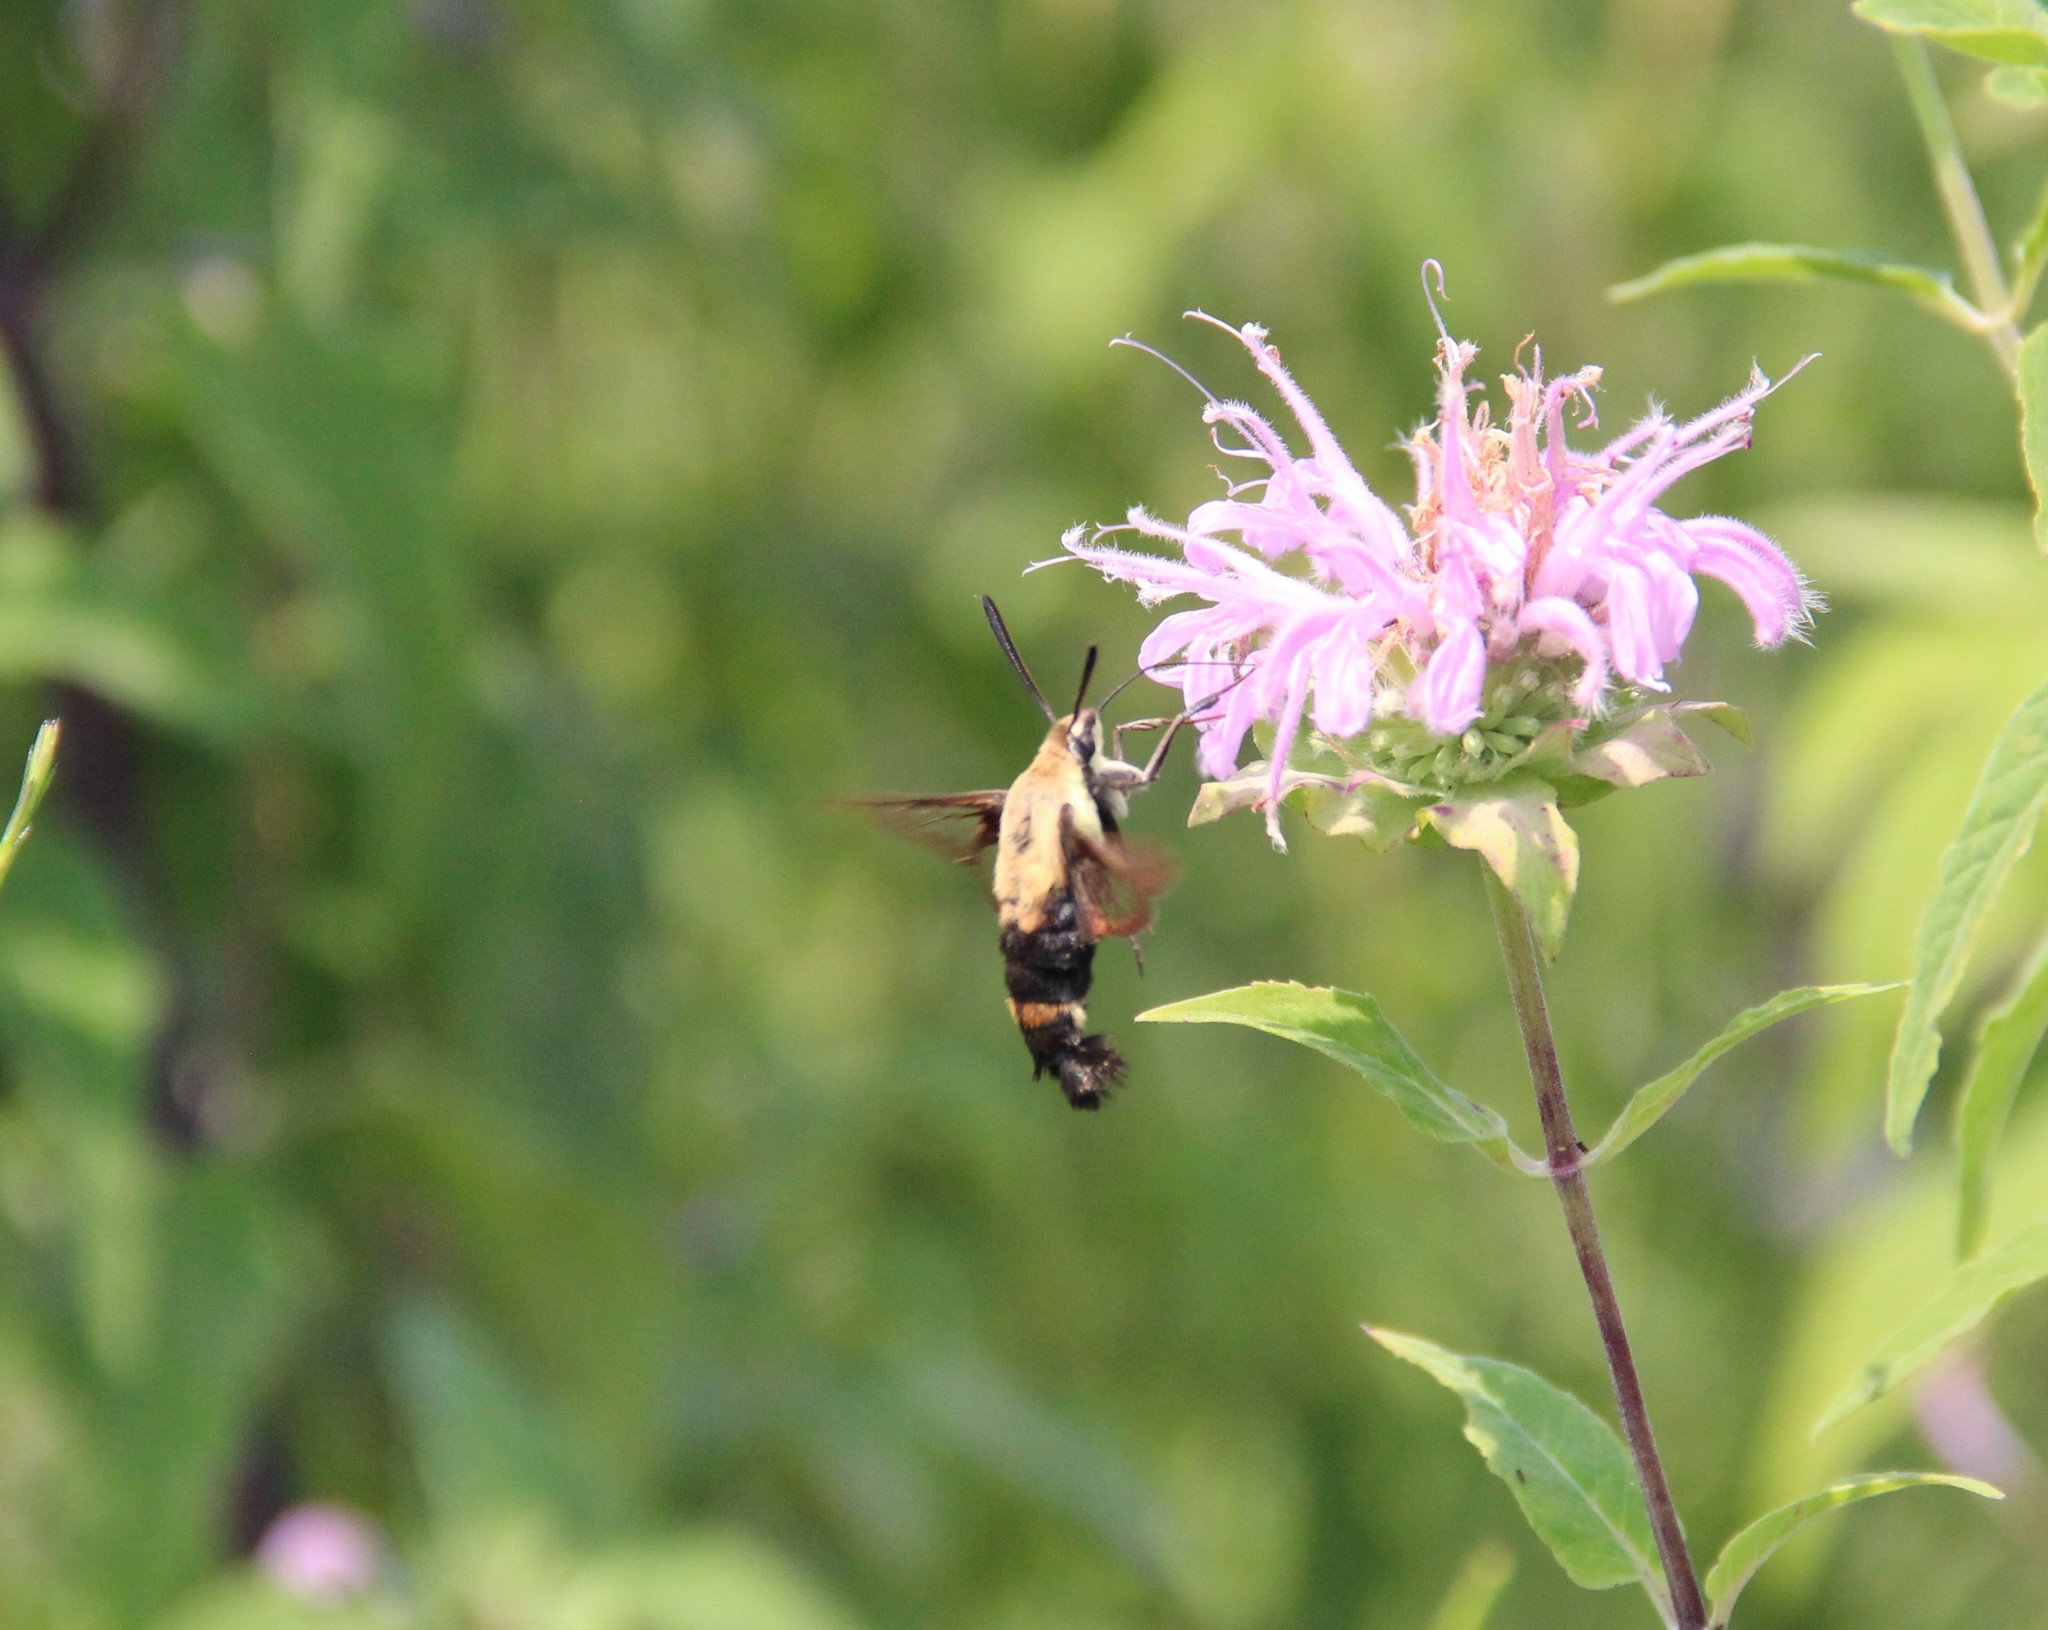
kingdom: Animalia
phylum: Arthropoda
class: Insecta
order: Lepidoptera
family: Sphingidae
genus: Hemaris
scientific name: Hemaris diffinis
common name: Bumblebee moth
